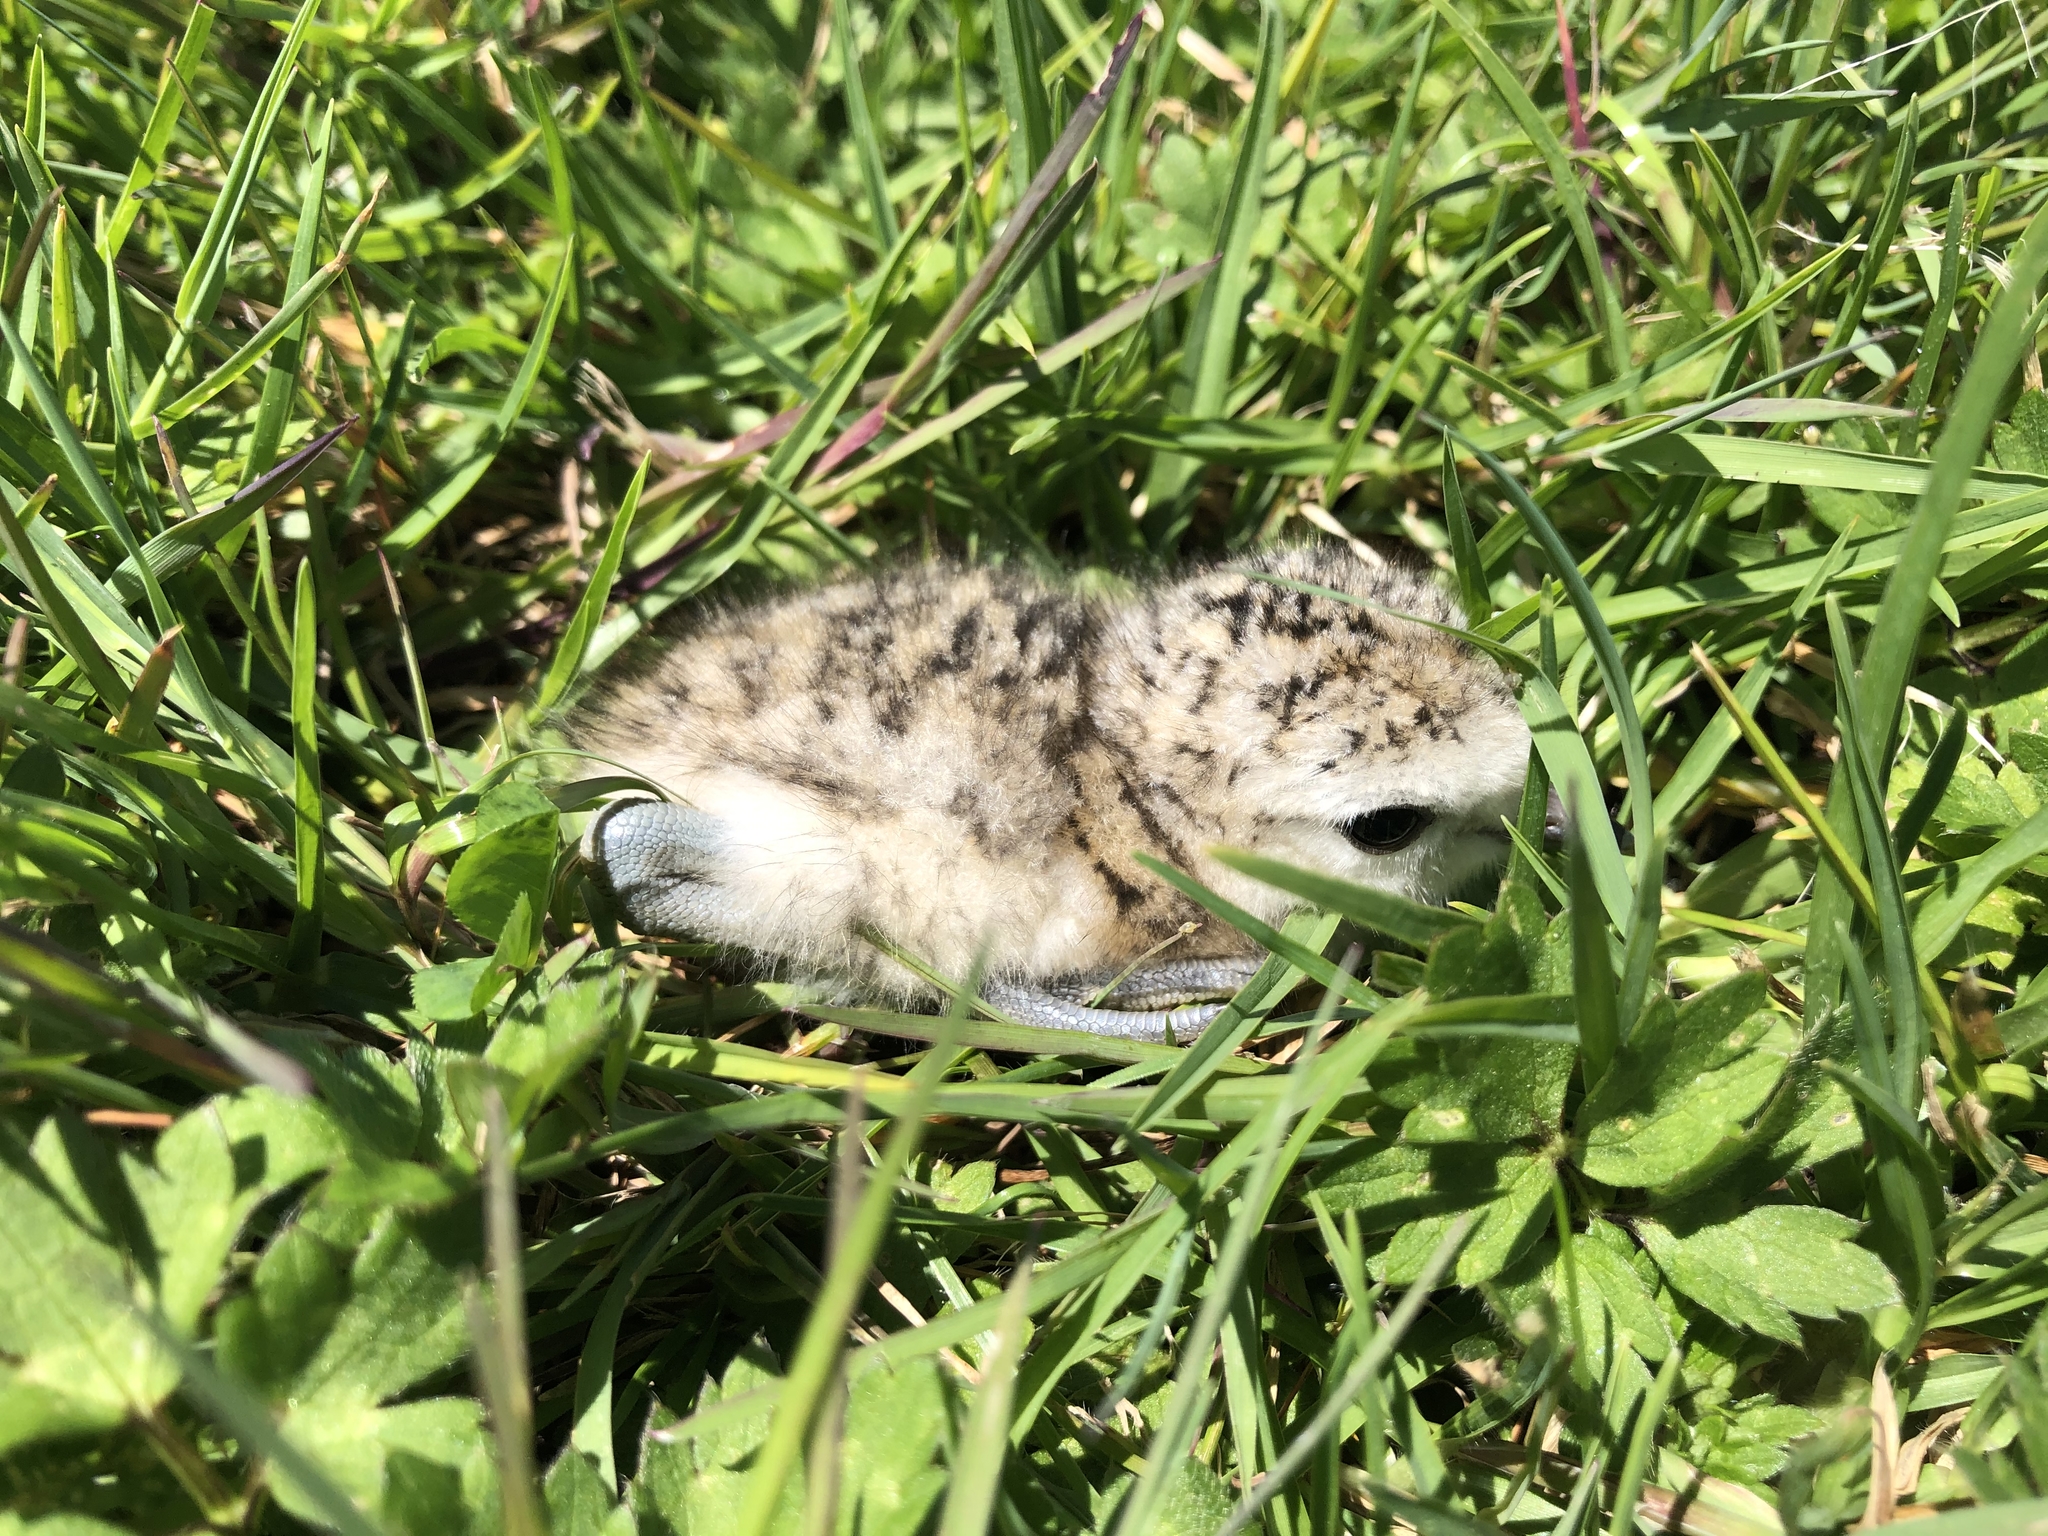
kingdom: Animalia
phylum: Chordata
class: Aves
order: Charadriiformes
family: Charadriidae
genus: Anarhynchus
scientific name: Anarhynchus
